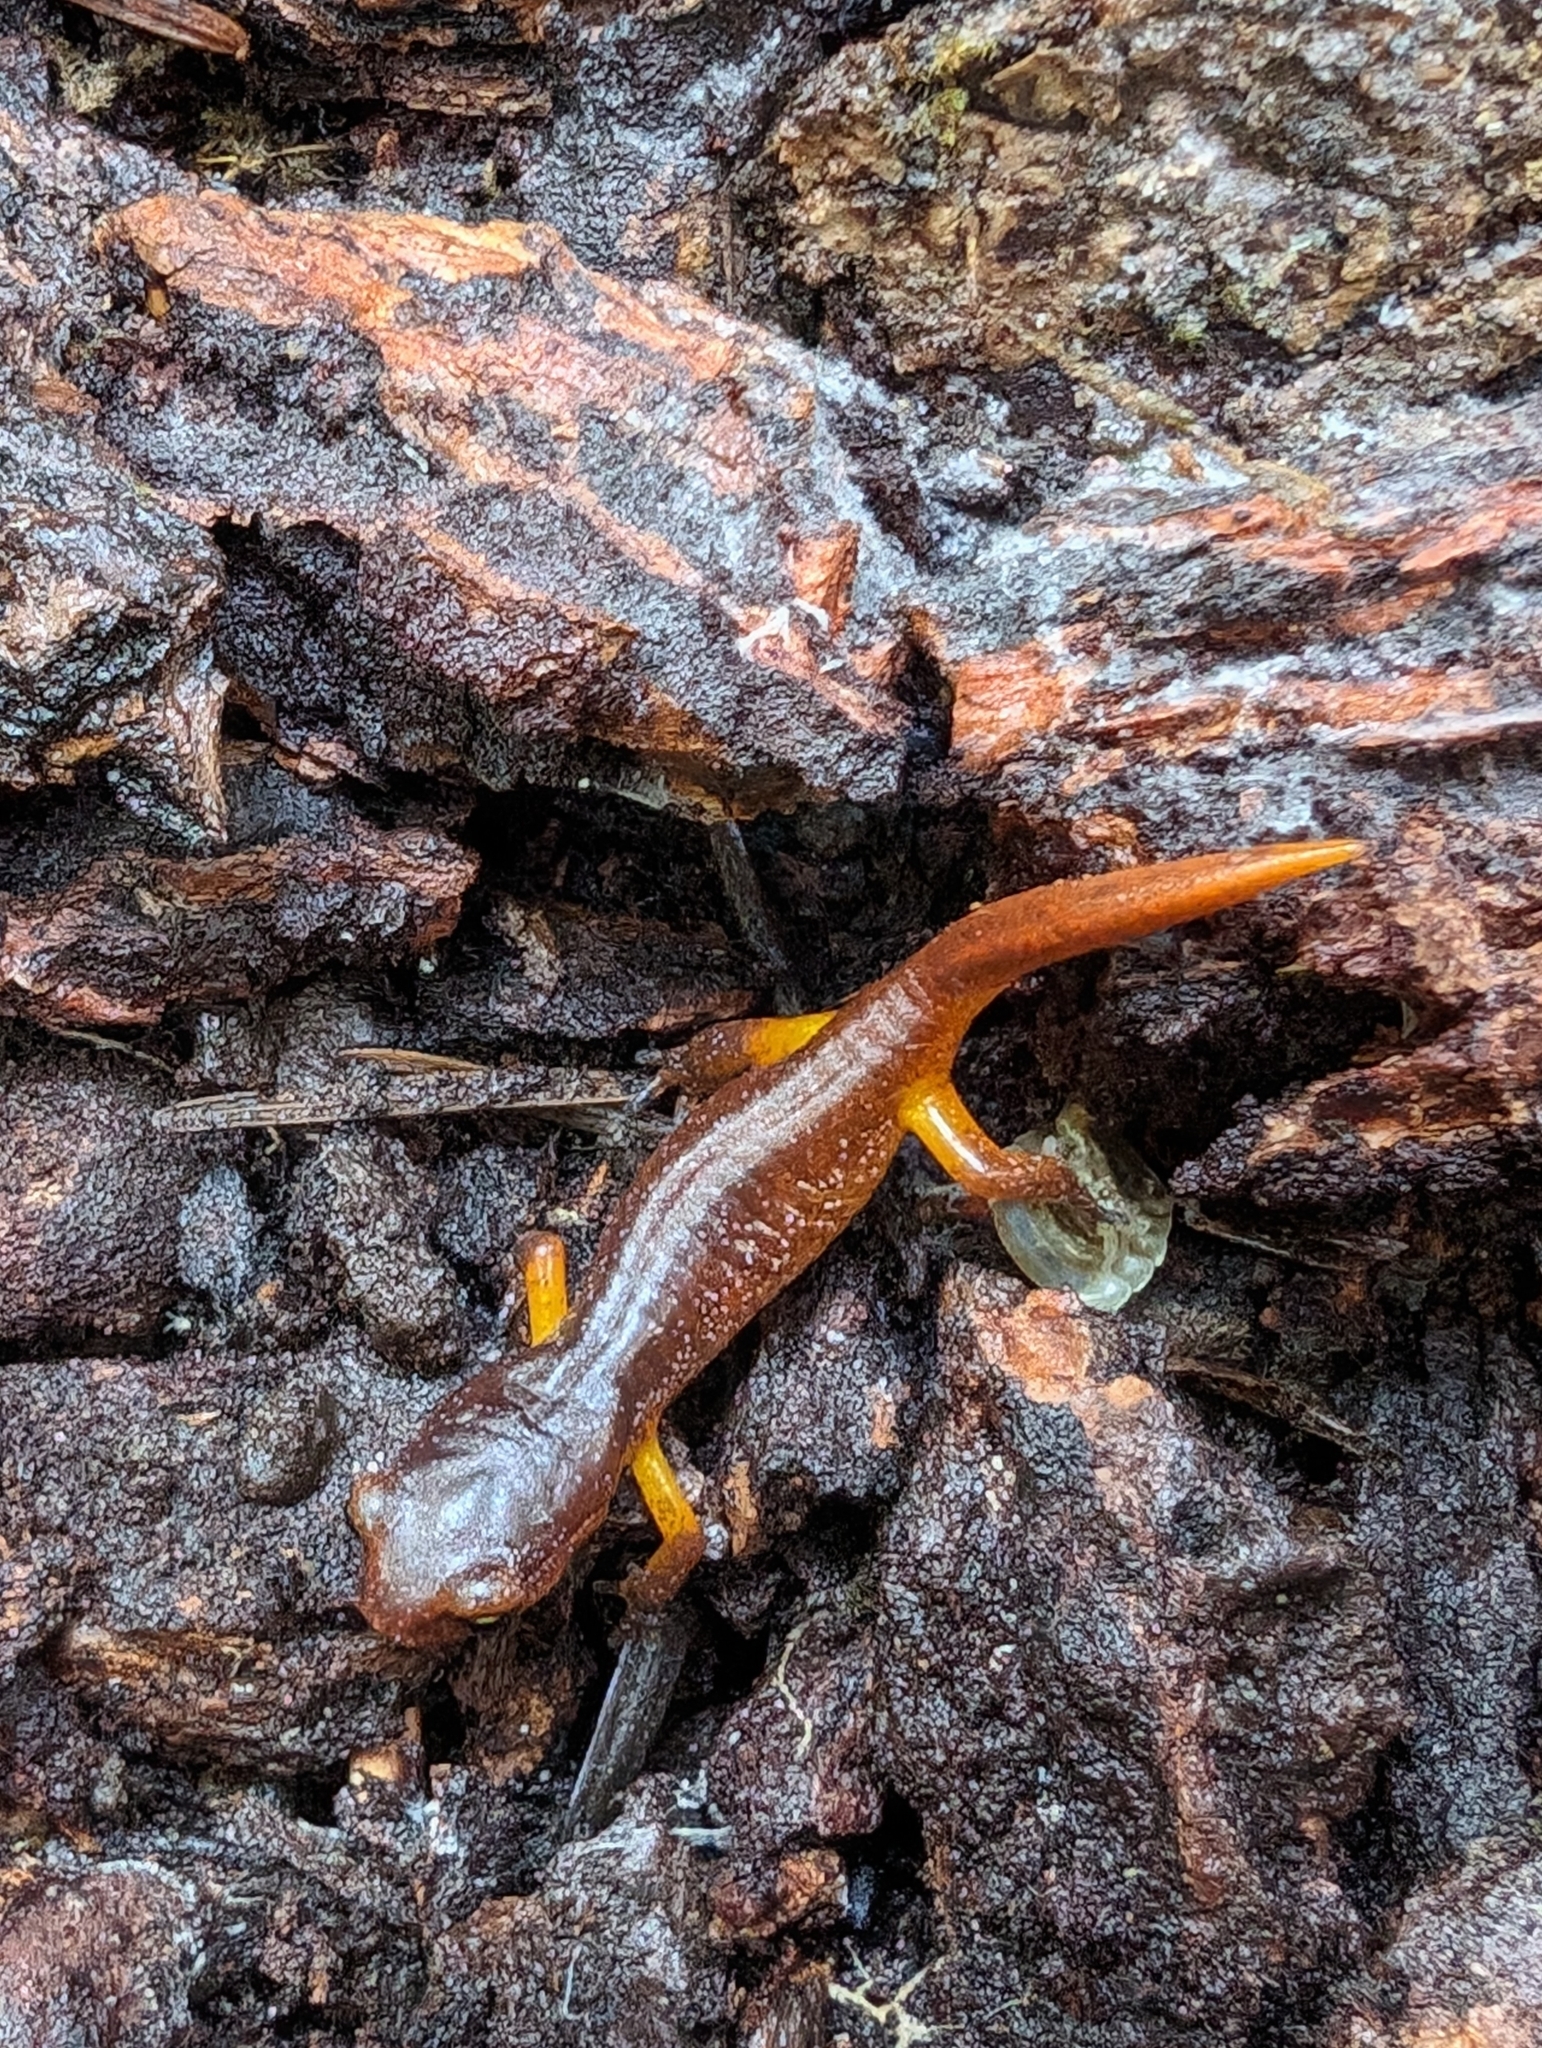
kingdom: Animalia
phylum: Chordata
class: Amphibia
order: Caudata
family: Plethodontidae
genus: Ensatina
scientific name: Ensatina eschscholtzii
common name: Ensatina
